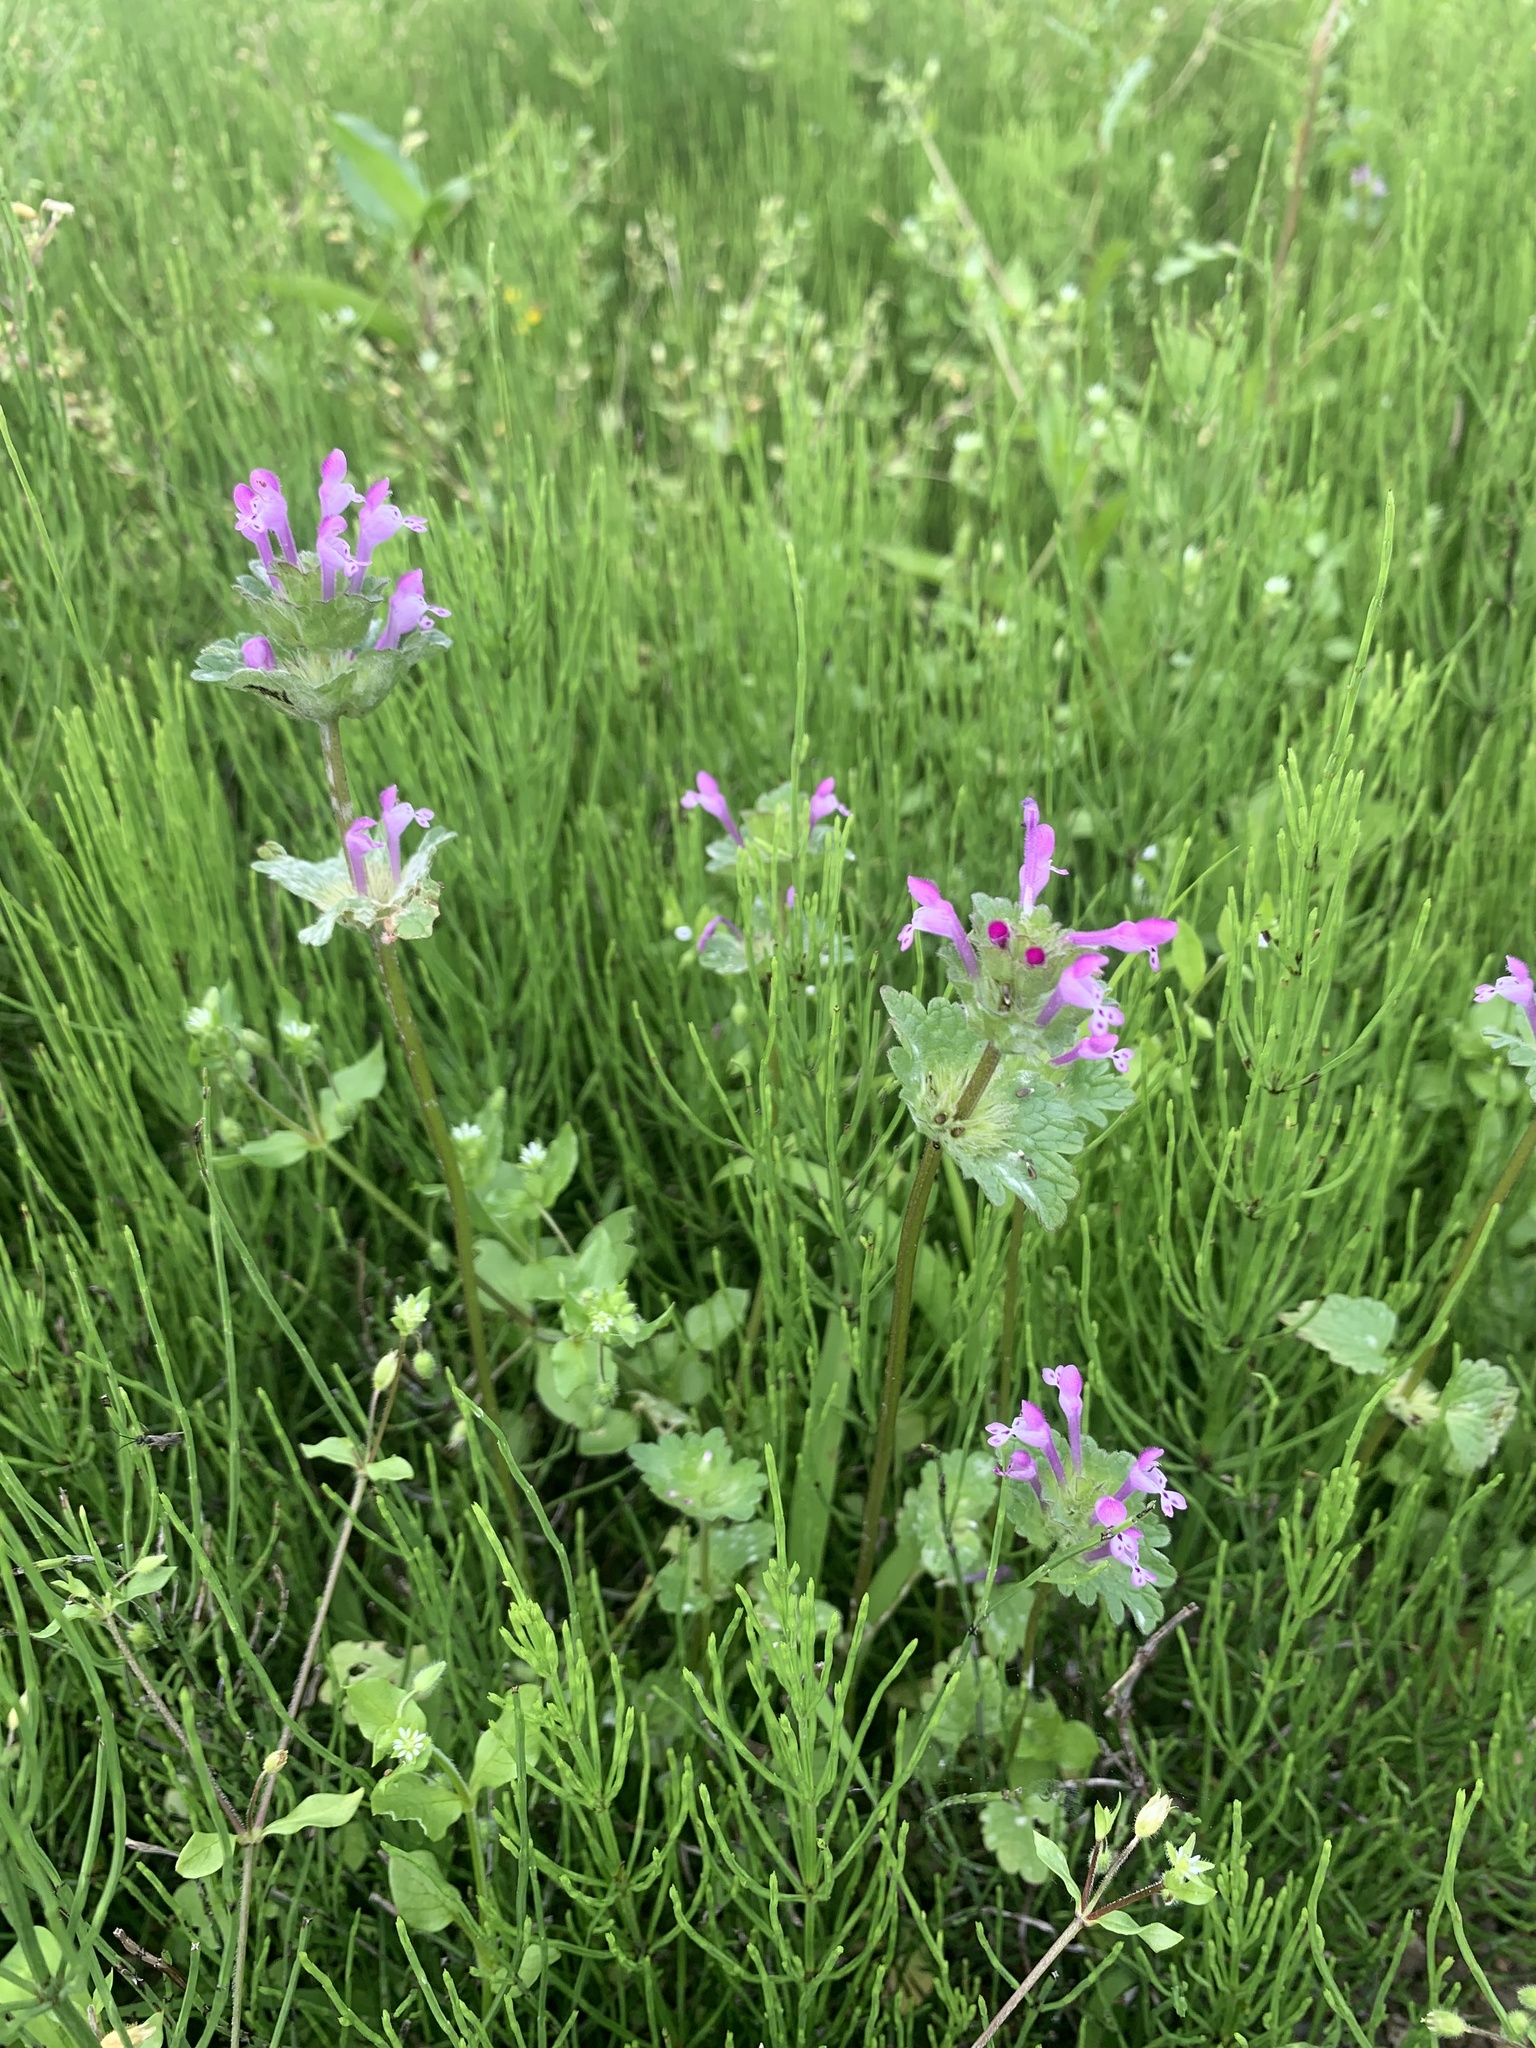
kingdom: Plantae
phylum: Tracheophyta
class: Magnoliopsida
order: Lamiales
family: Lamiaceae
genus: Lamium
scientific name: Lamium amplexicaule
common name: Henbit dead-nettle
